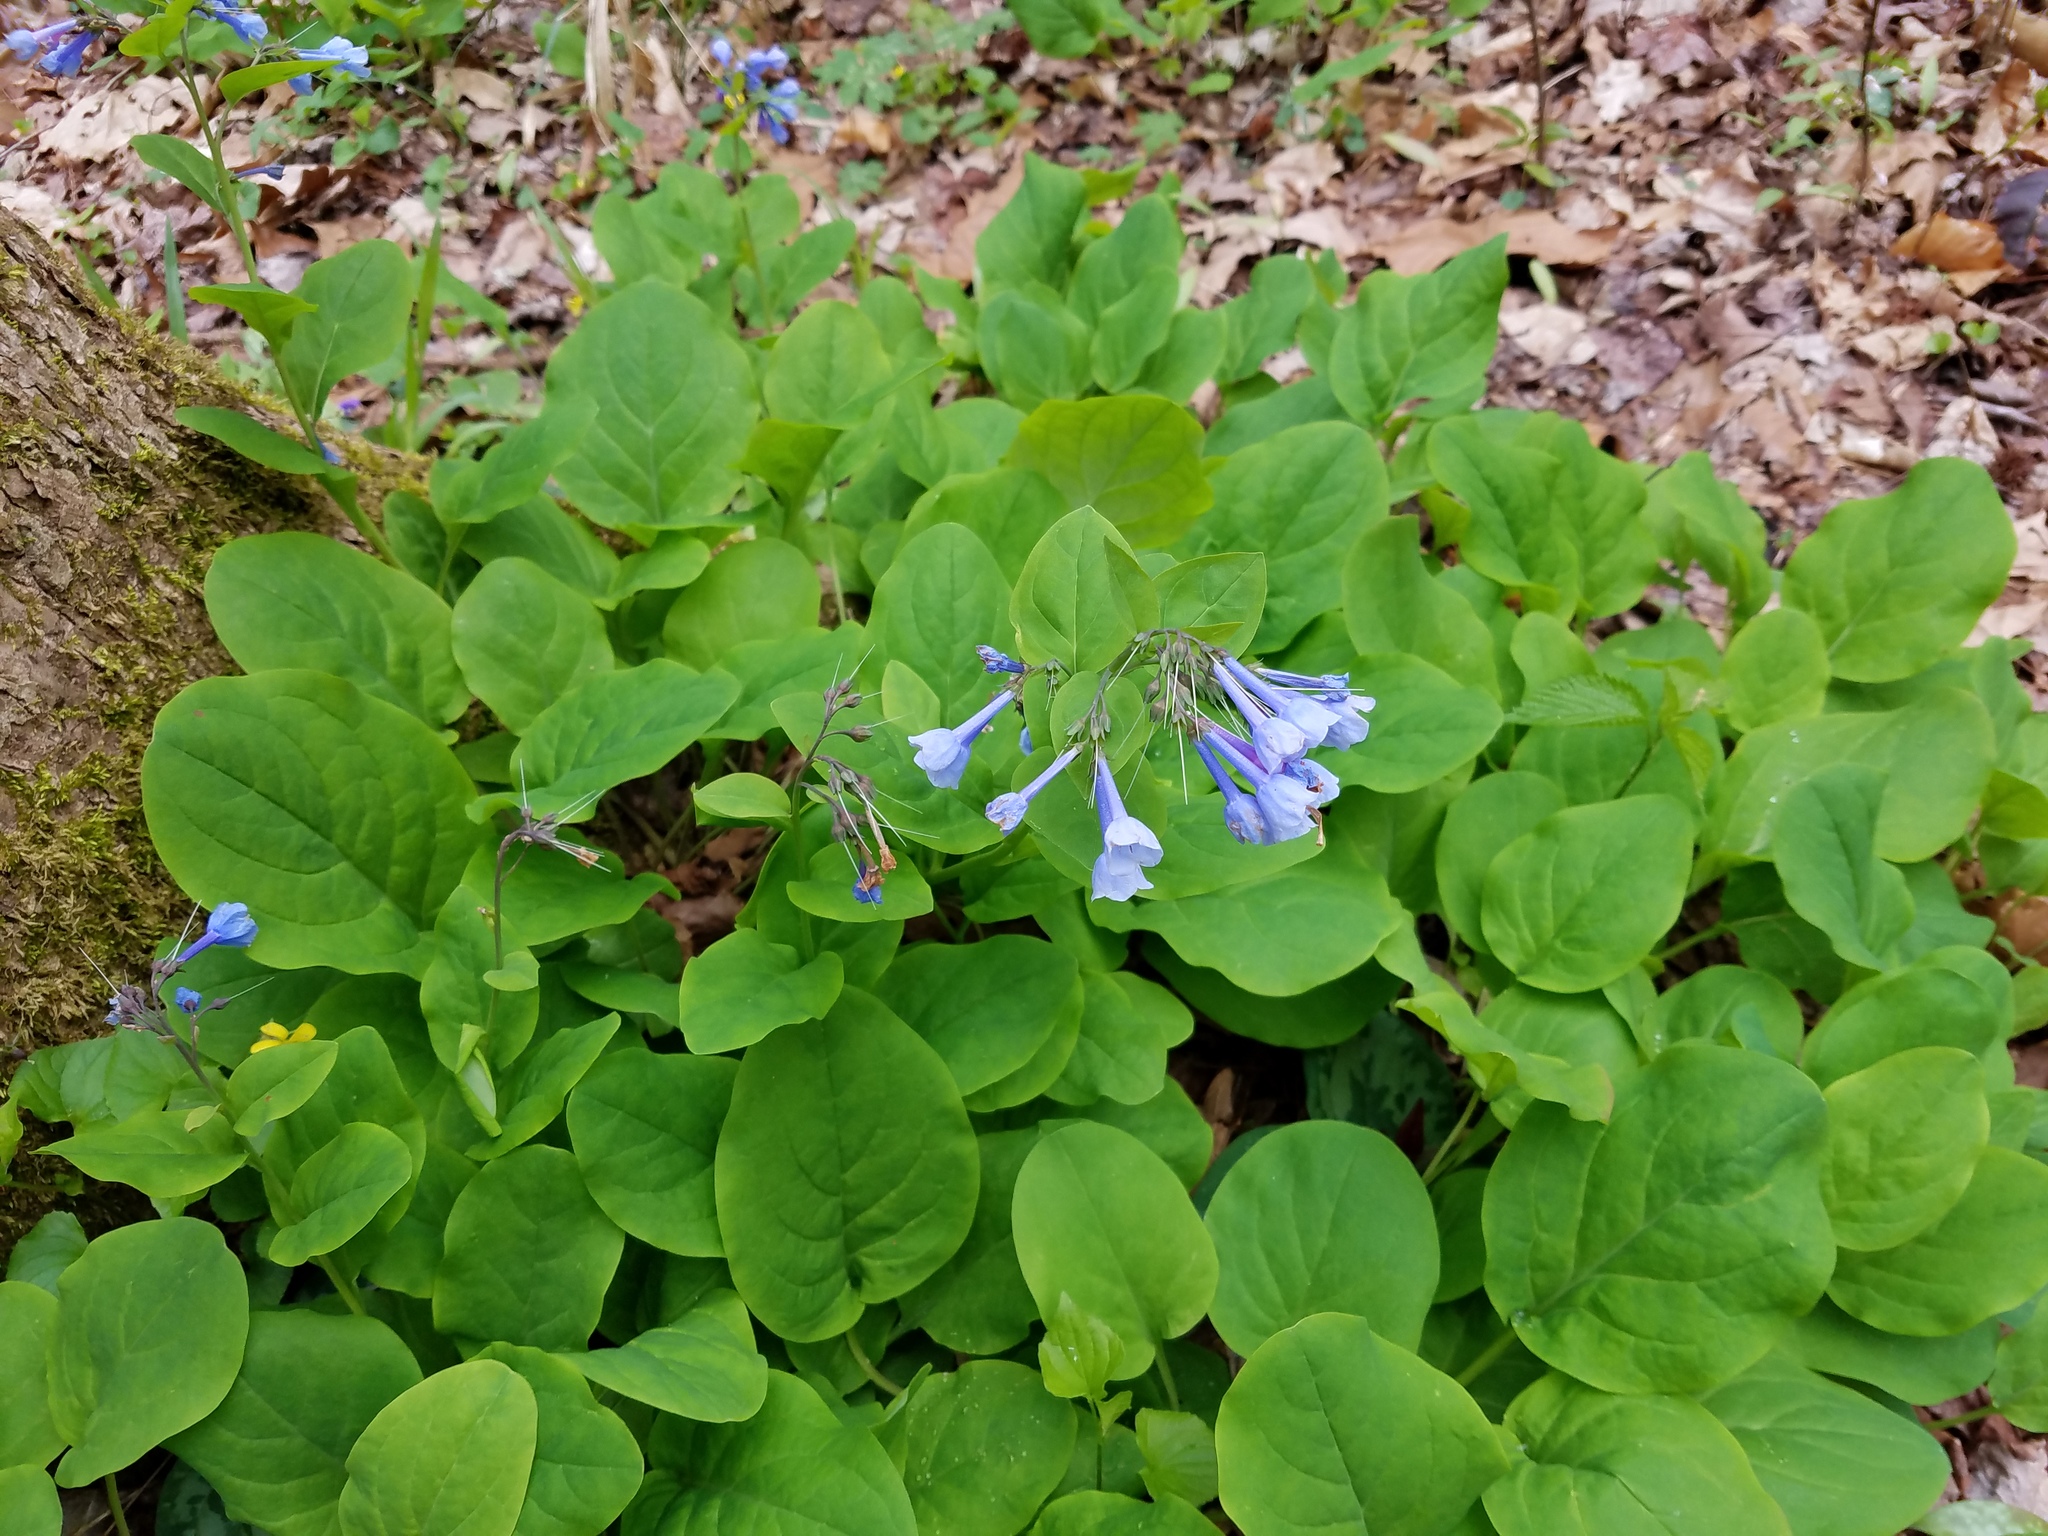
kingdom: Plantae
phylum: Tracheophyta
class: Magnoliopsida
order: Boraginales
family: Boraginaceae
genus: Mertensia
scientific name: Mertensia virginica
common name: Virginia bluebells
